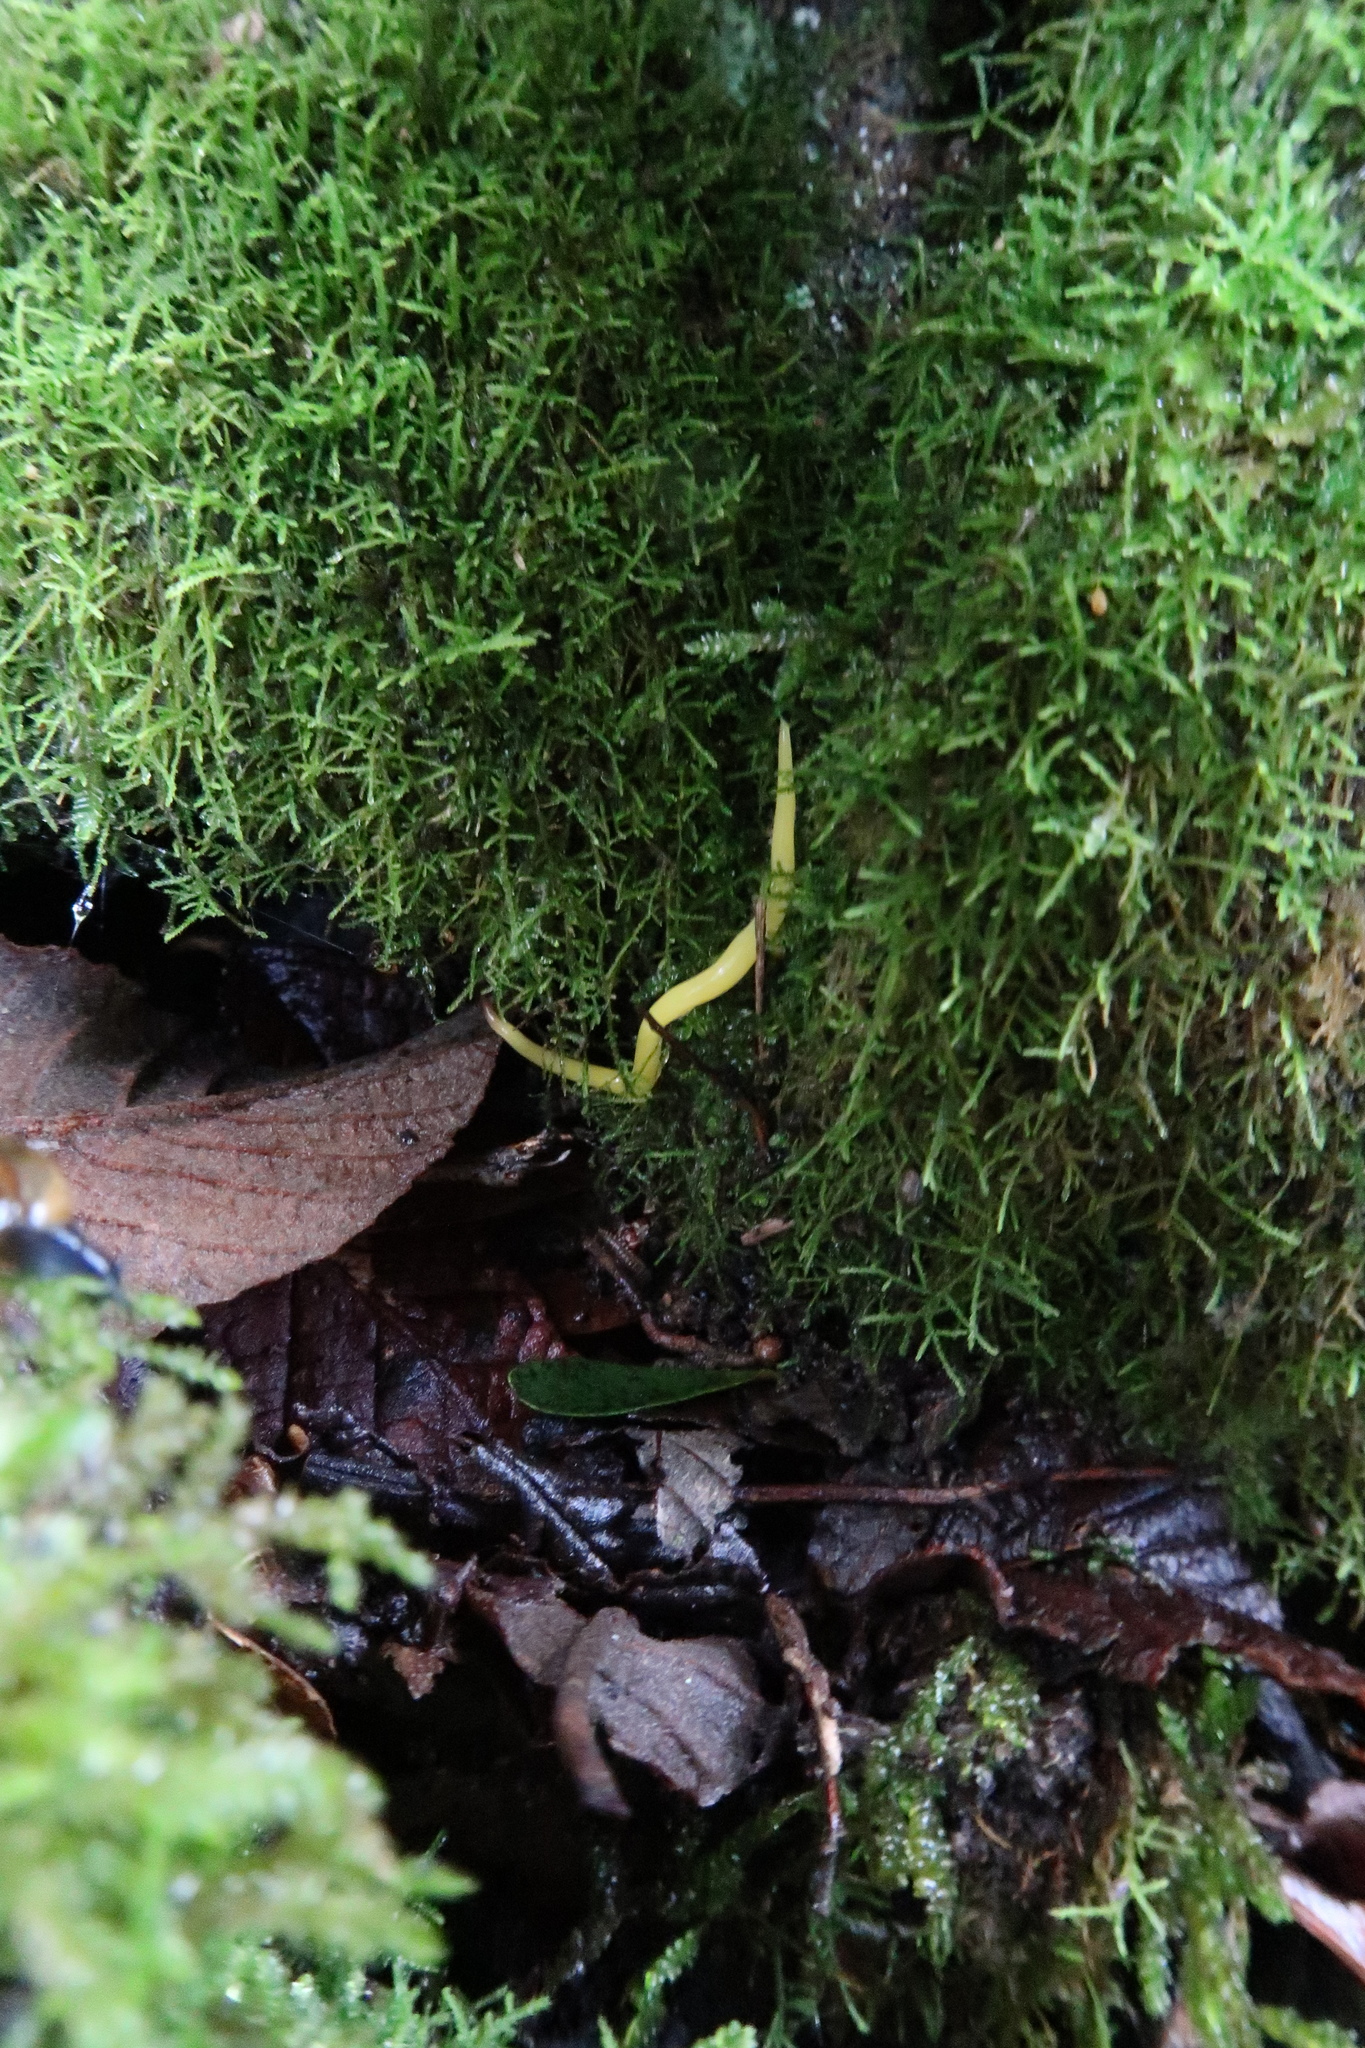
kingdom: Animalia
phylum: Platyhelminthes
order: Tricladida
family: Geoplanidae
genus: Fletchamia
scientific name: Fletchamia sugdeni
